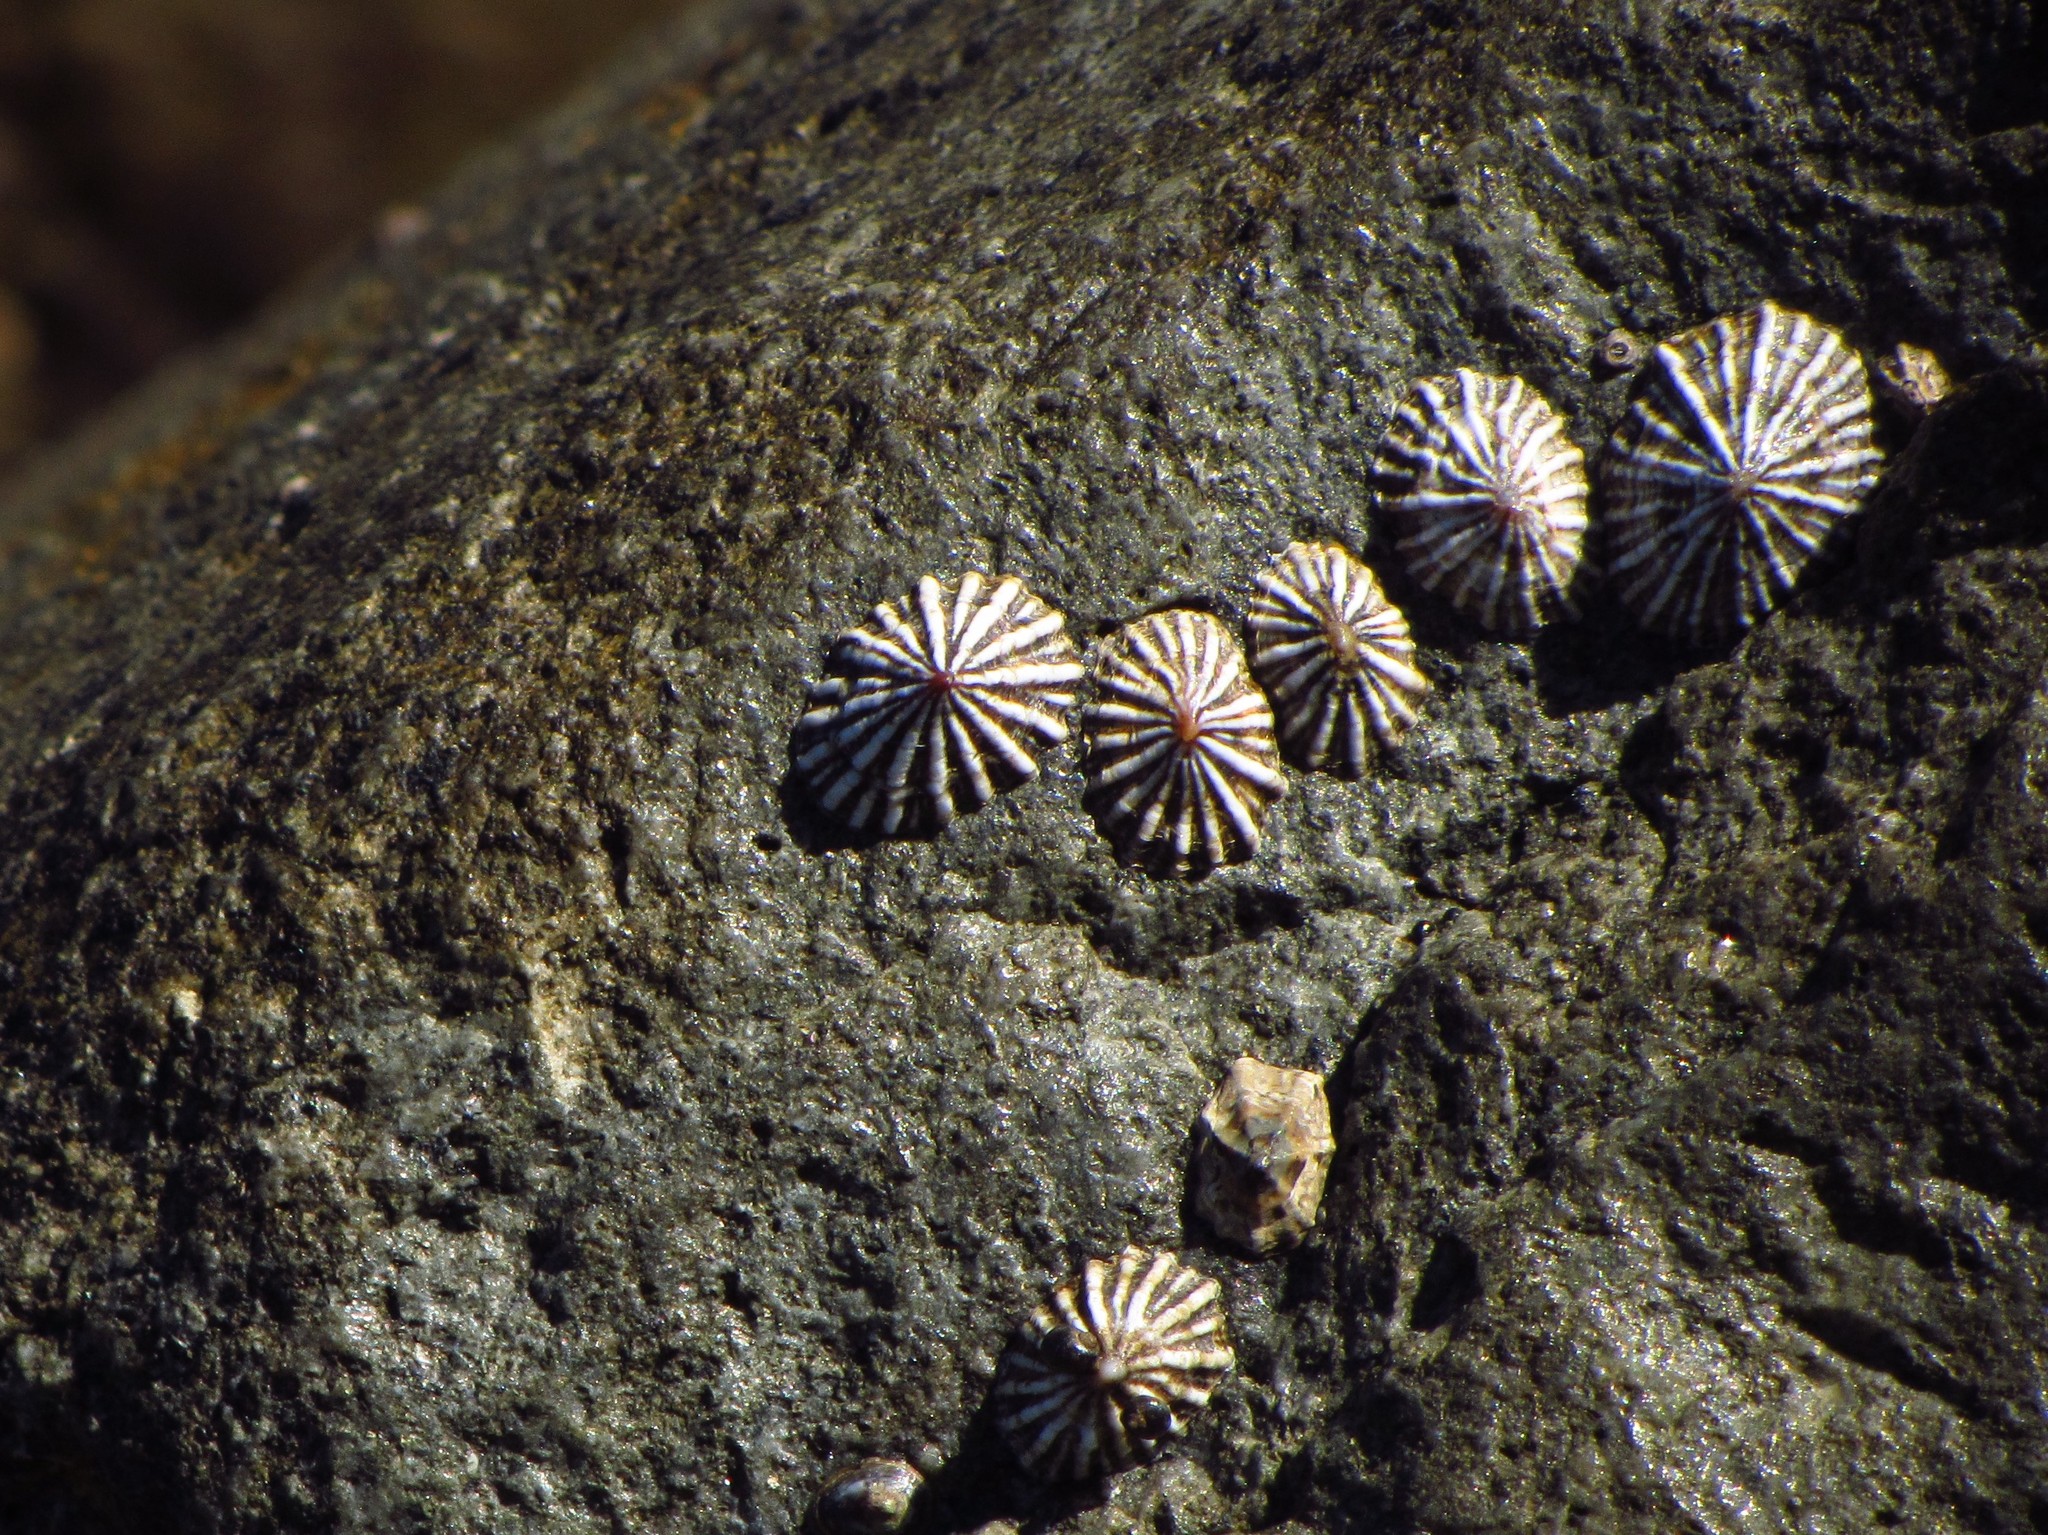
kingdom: Animalia
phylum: Mollusca
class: Gastropoda
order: Siphonariida
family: Siphonariidae
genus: Siphonaria
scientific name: Siphonaria diemenensis
